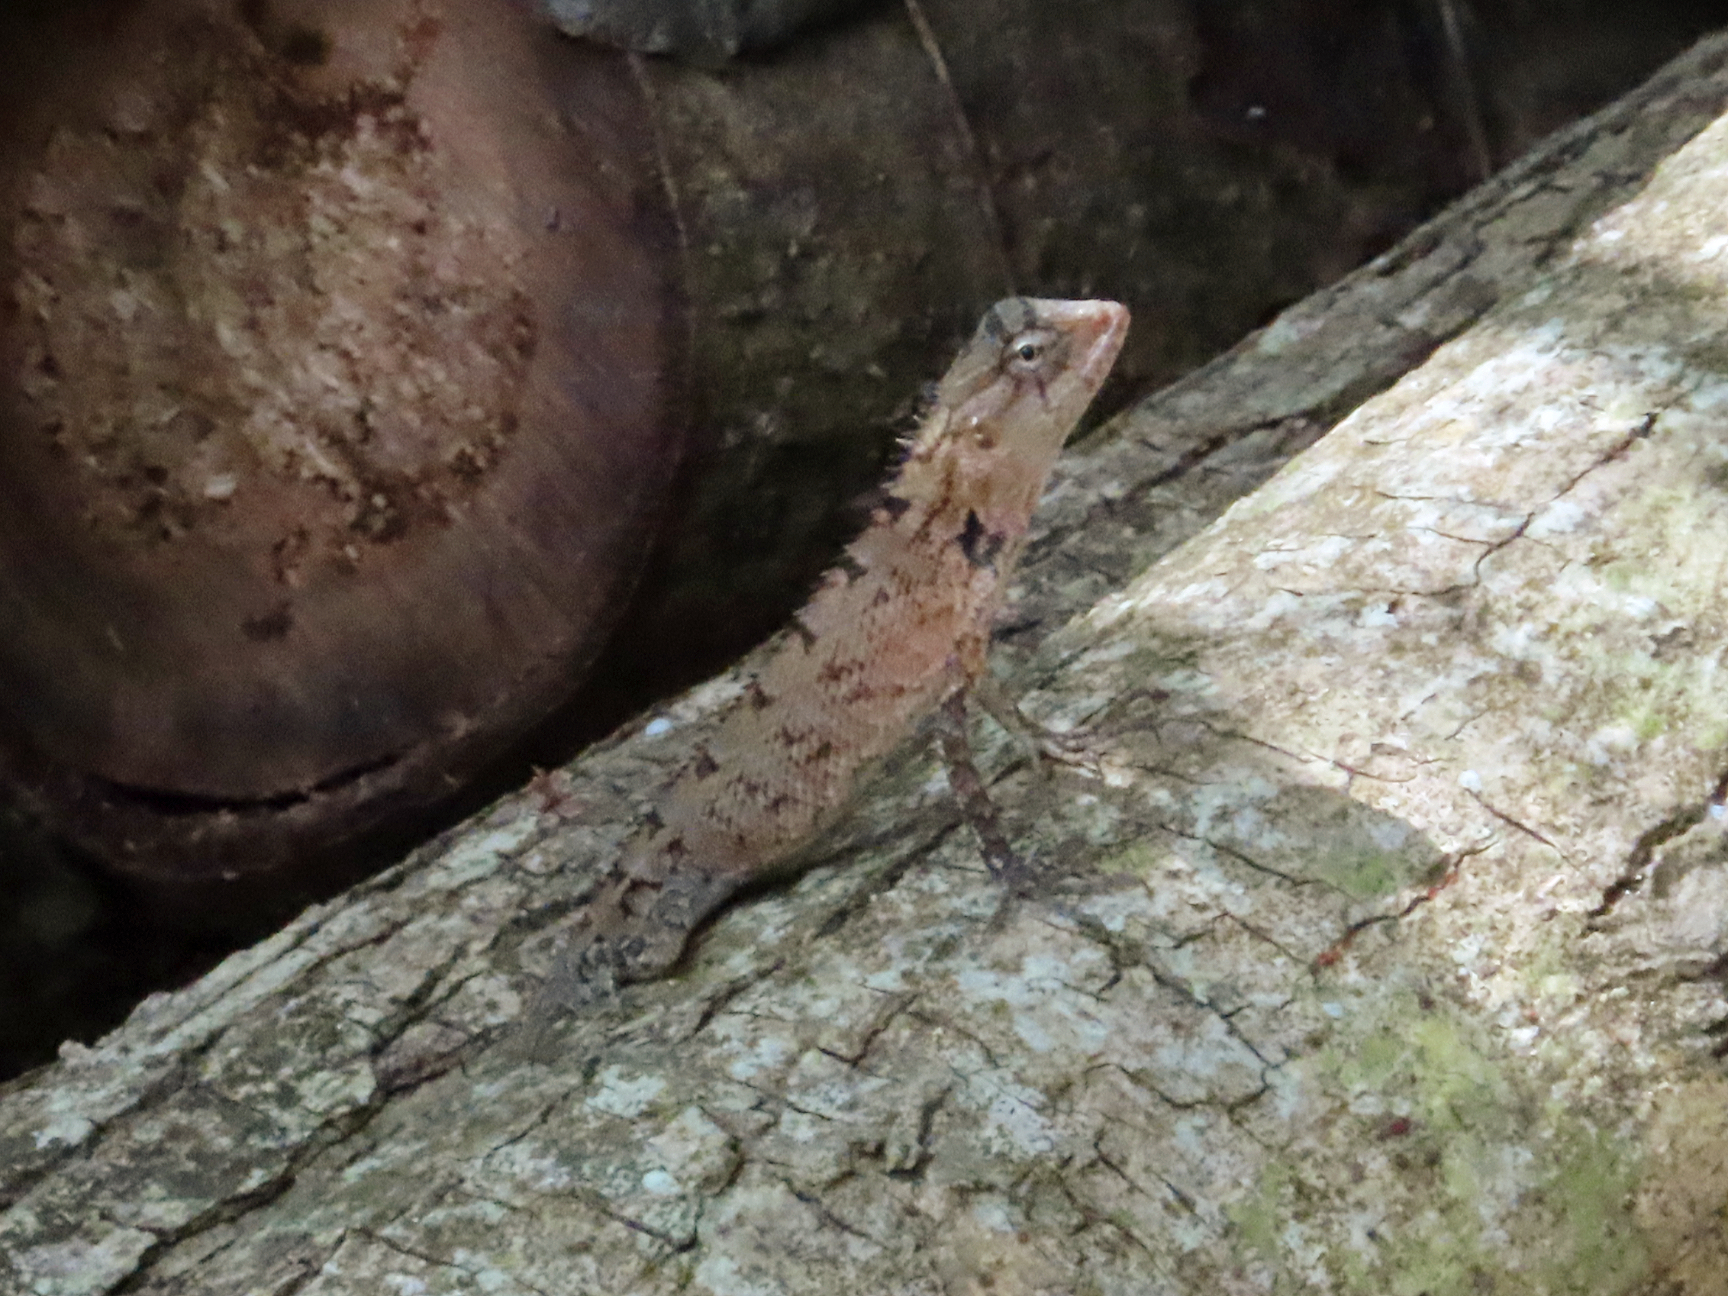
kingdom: Animalia
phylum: Chordata
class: Squamata
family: Agamidae
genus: Calotes
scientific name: Calotes versicolor
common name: Oriental garden lizard
